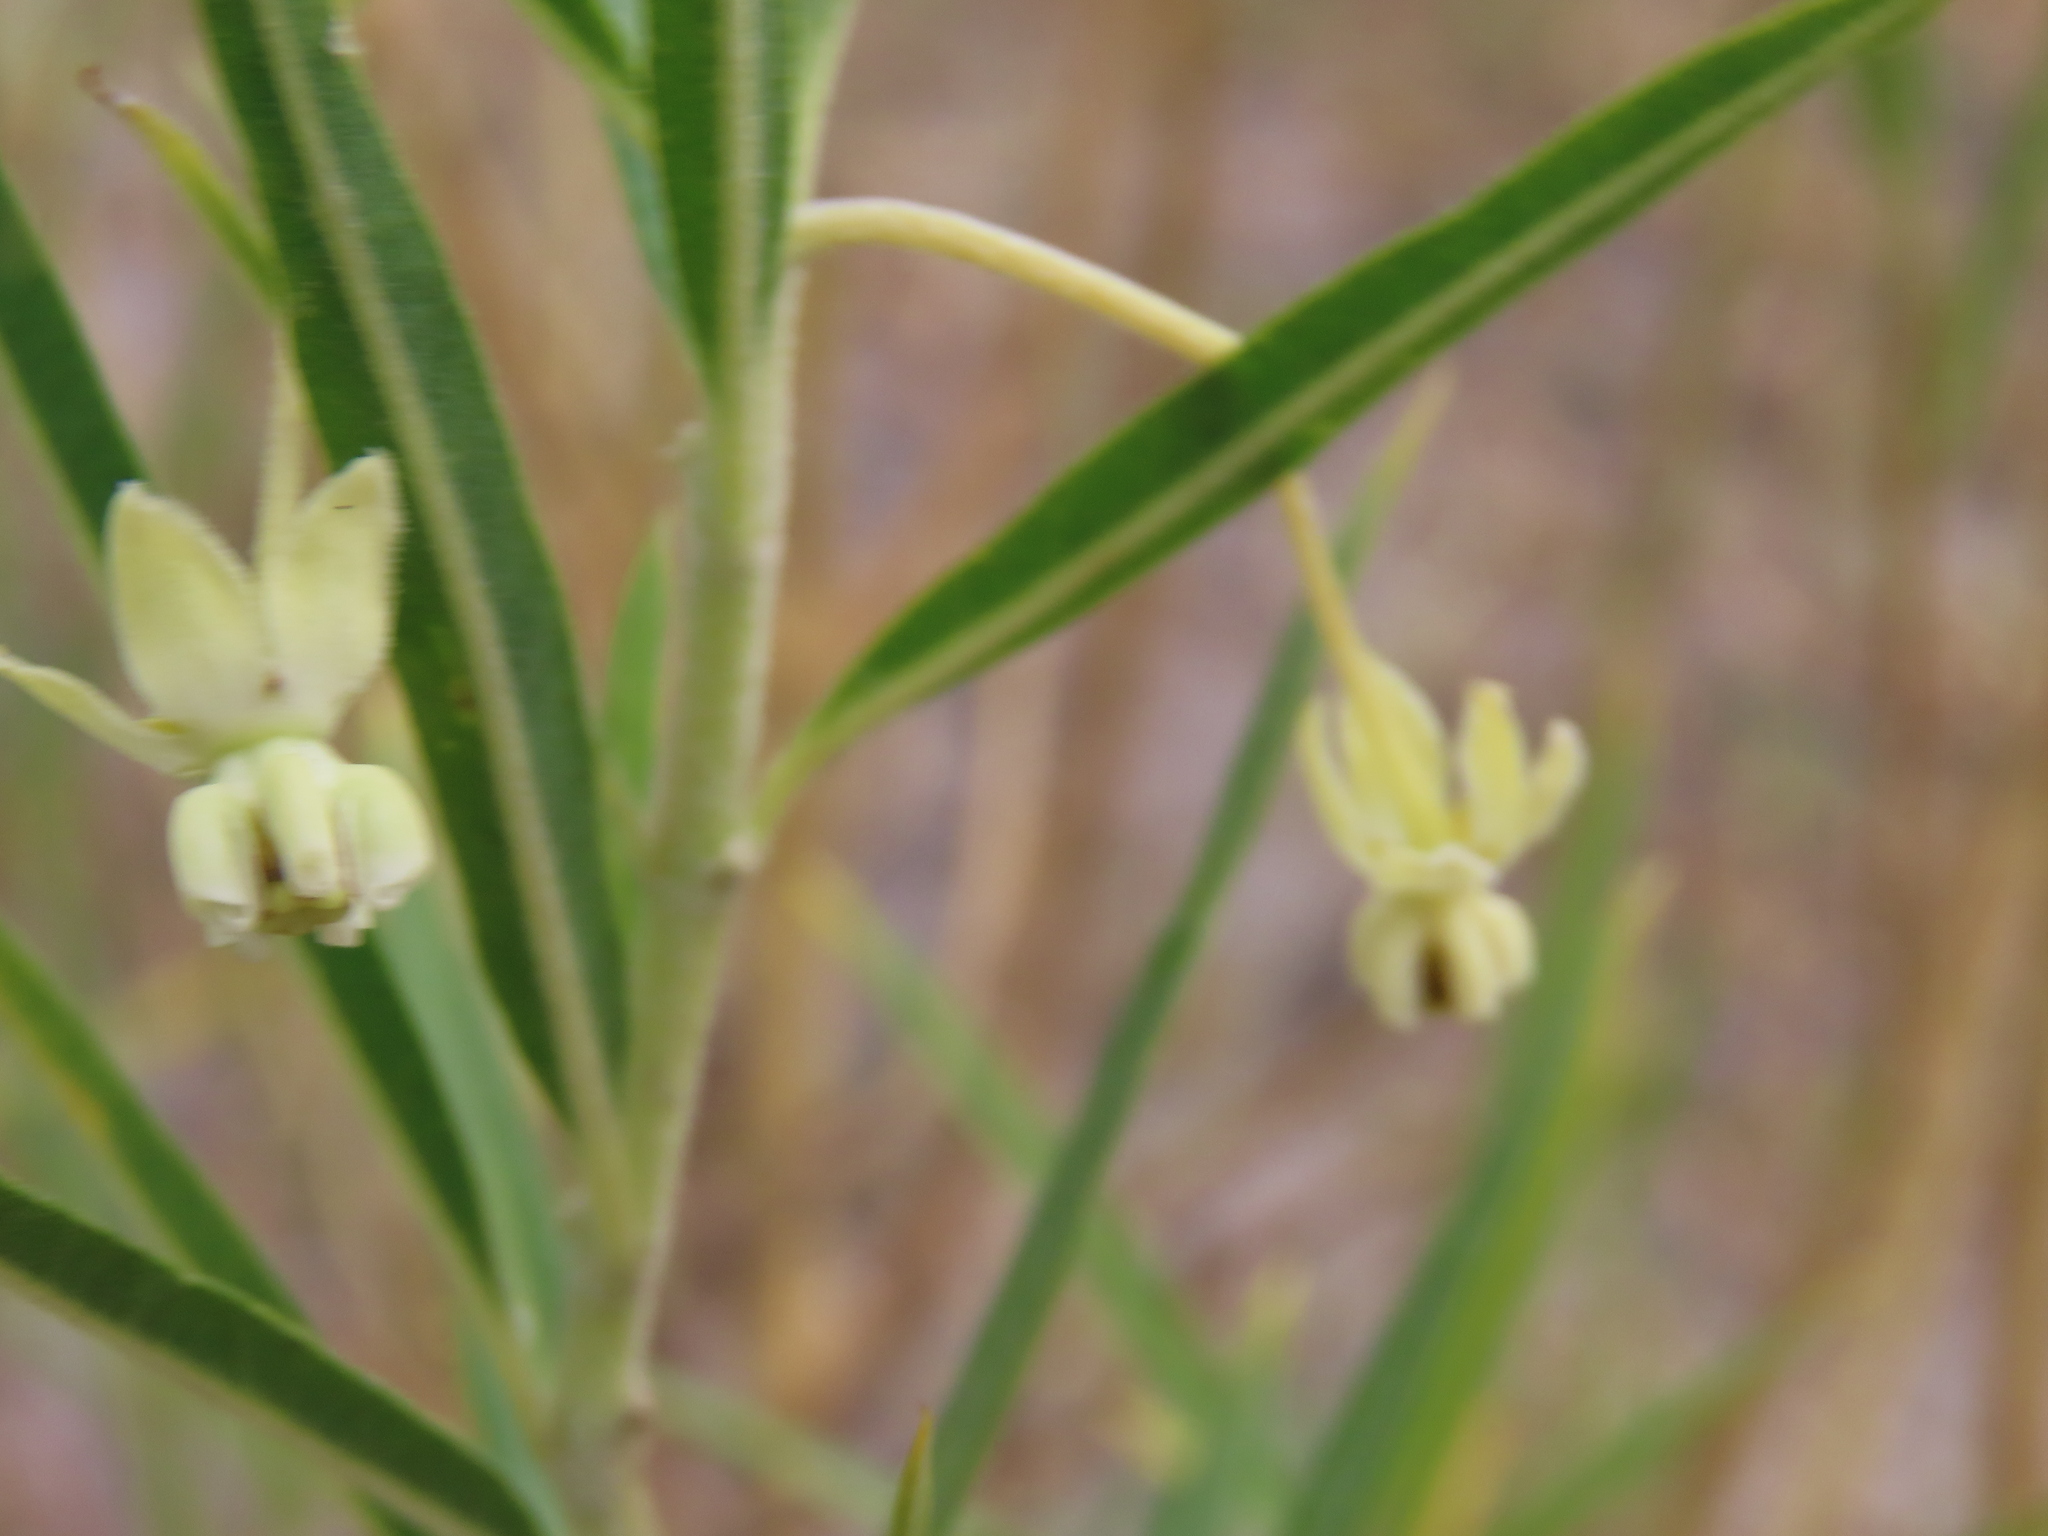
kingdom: Plantae
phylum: Tracheophyta
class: Magnoliopsida
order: Gentianales
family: Apocynaceae
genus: Gomphocarpus
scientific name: Gomphocarpus fruticosus
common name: Milkweed
